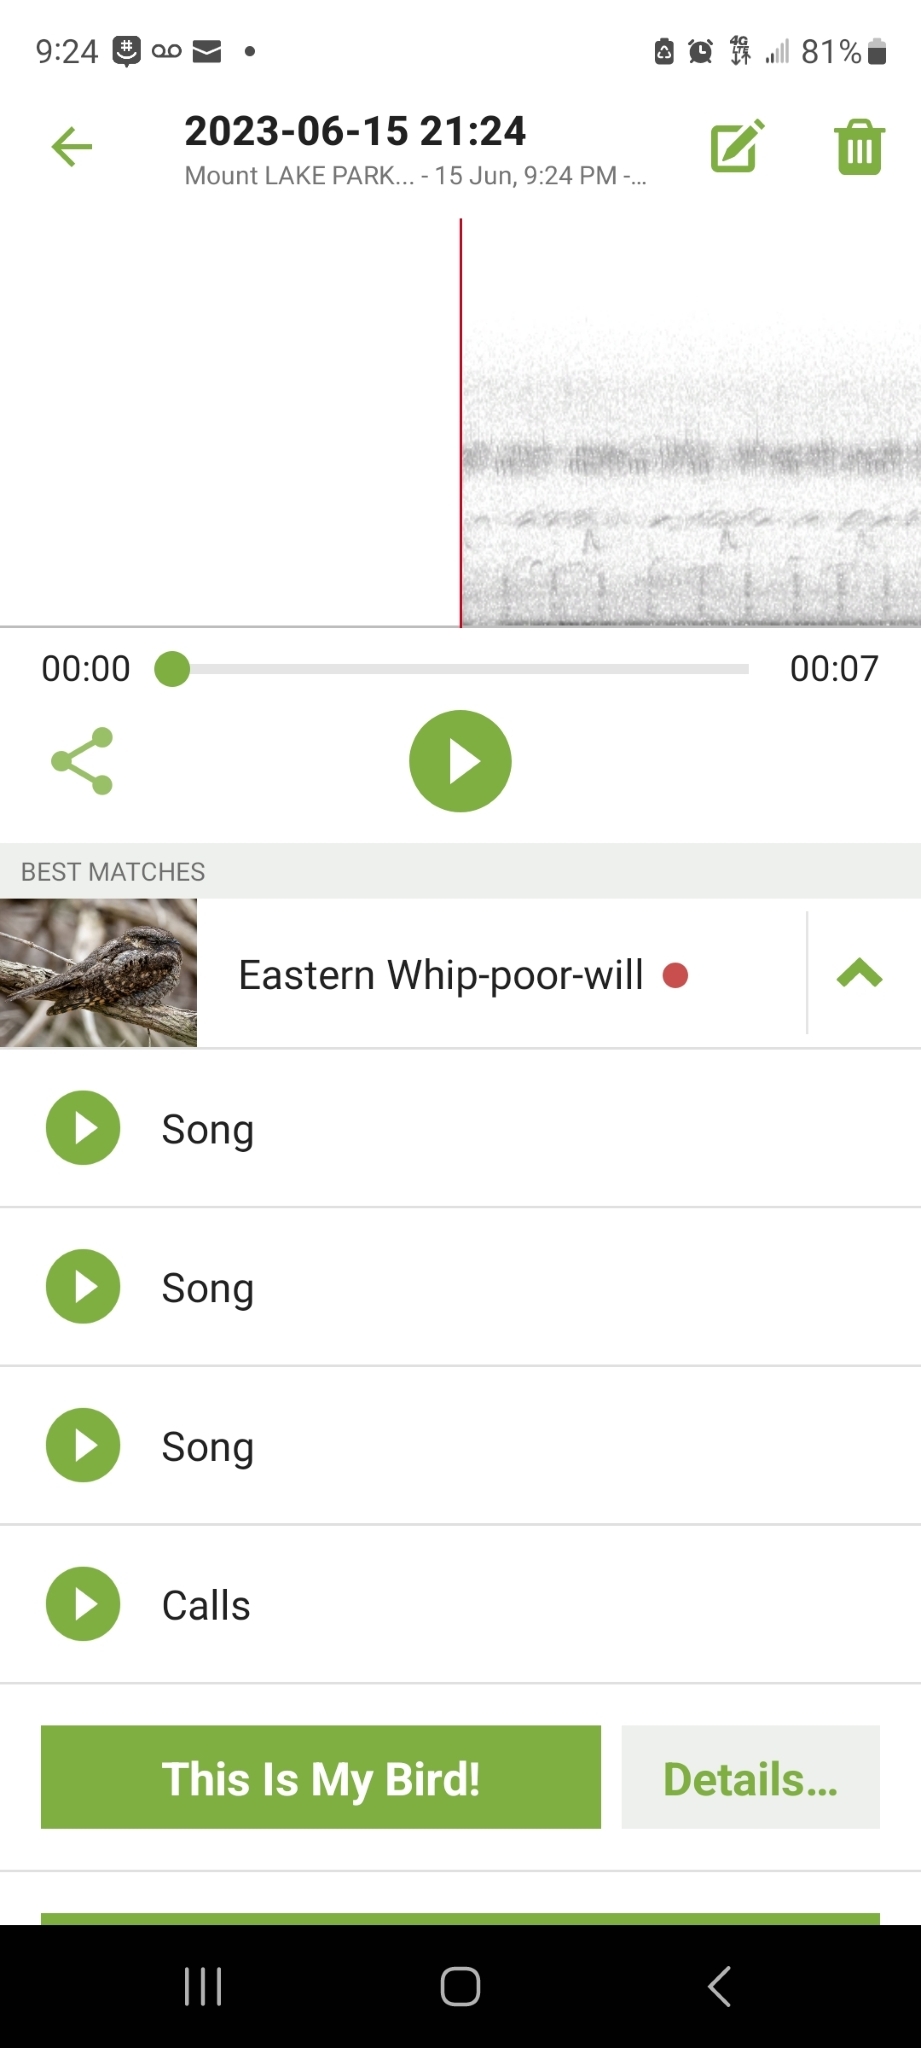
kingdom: Animalia
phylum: Chordata
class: Aves
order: Caprimulgiformes
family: Caprimulgidae
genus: Antrostomus
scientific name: Antrostomus vociferus
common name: Eastern whip-poor-will
